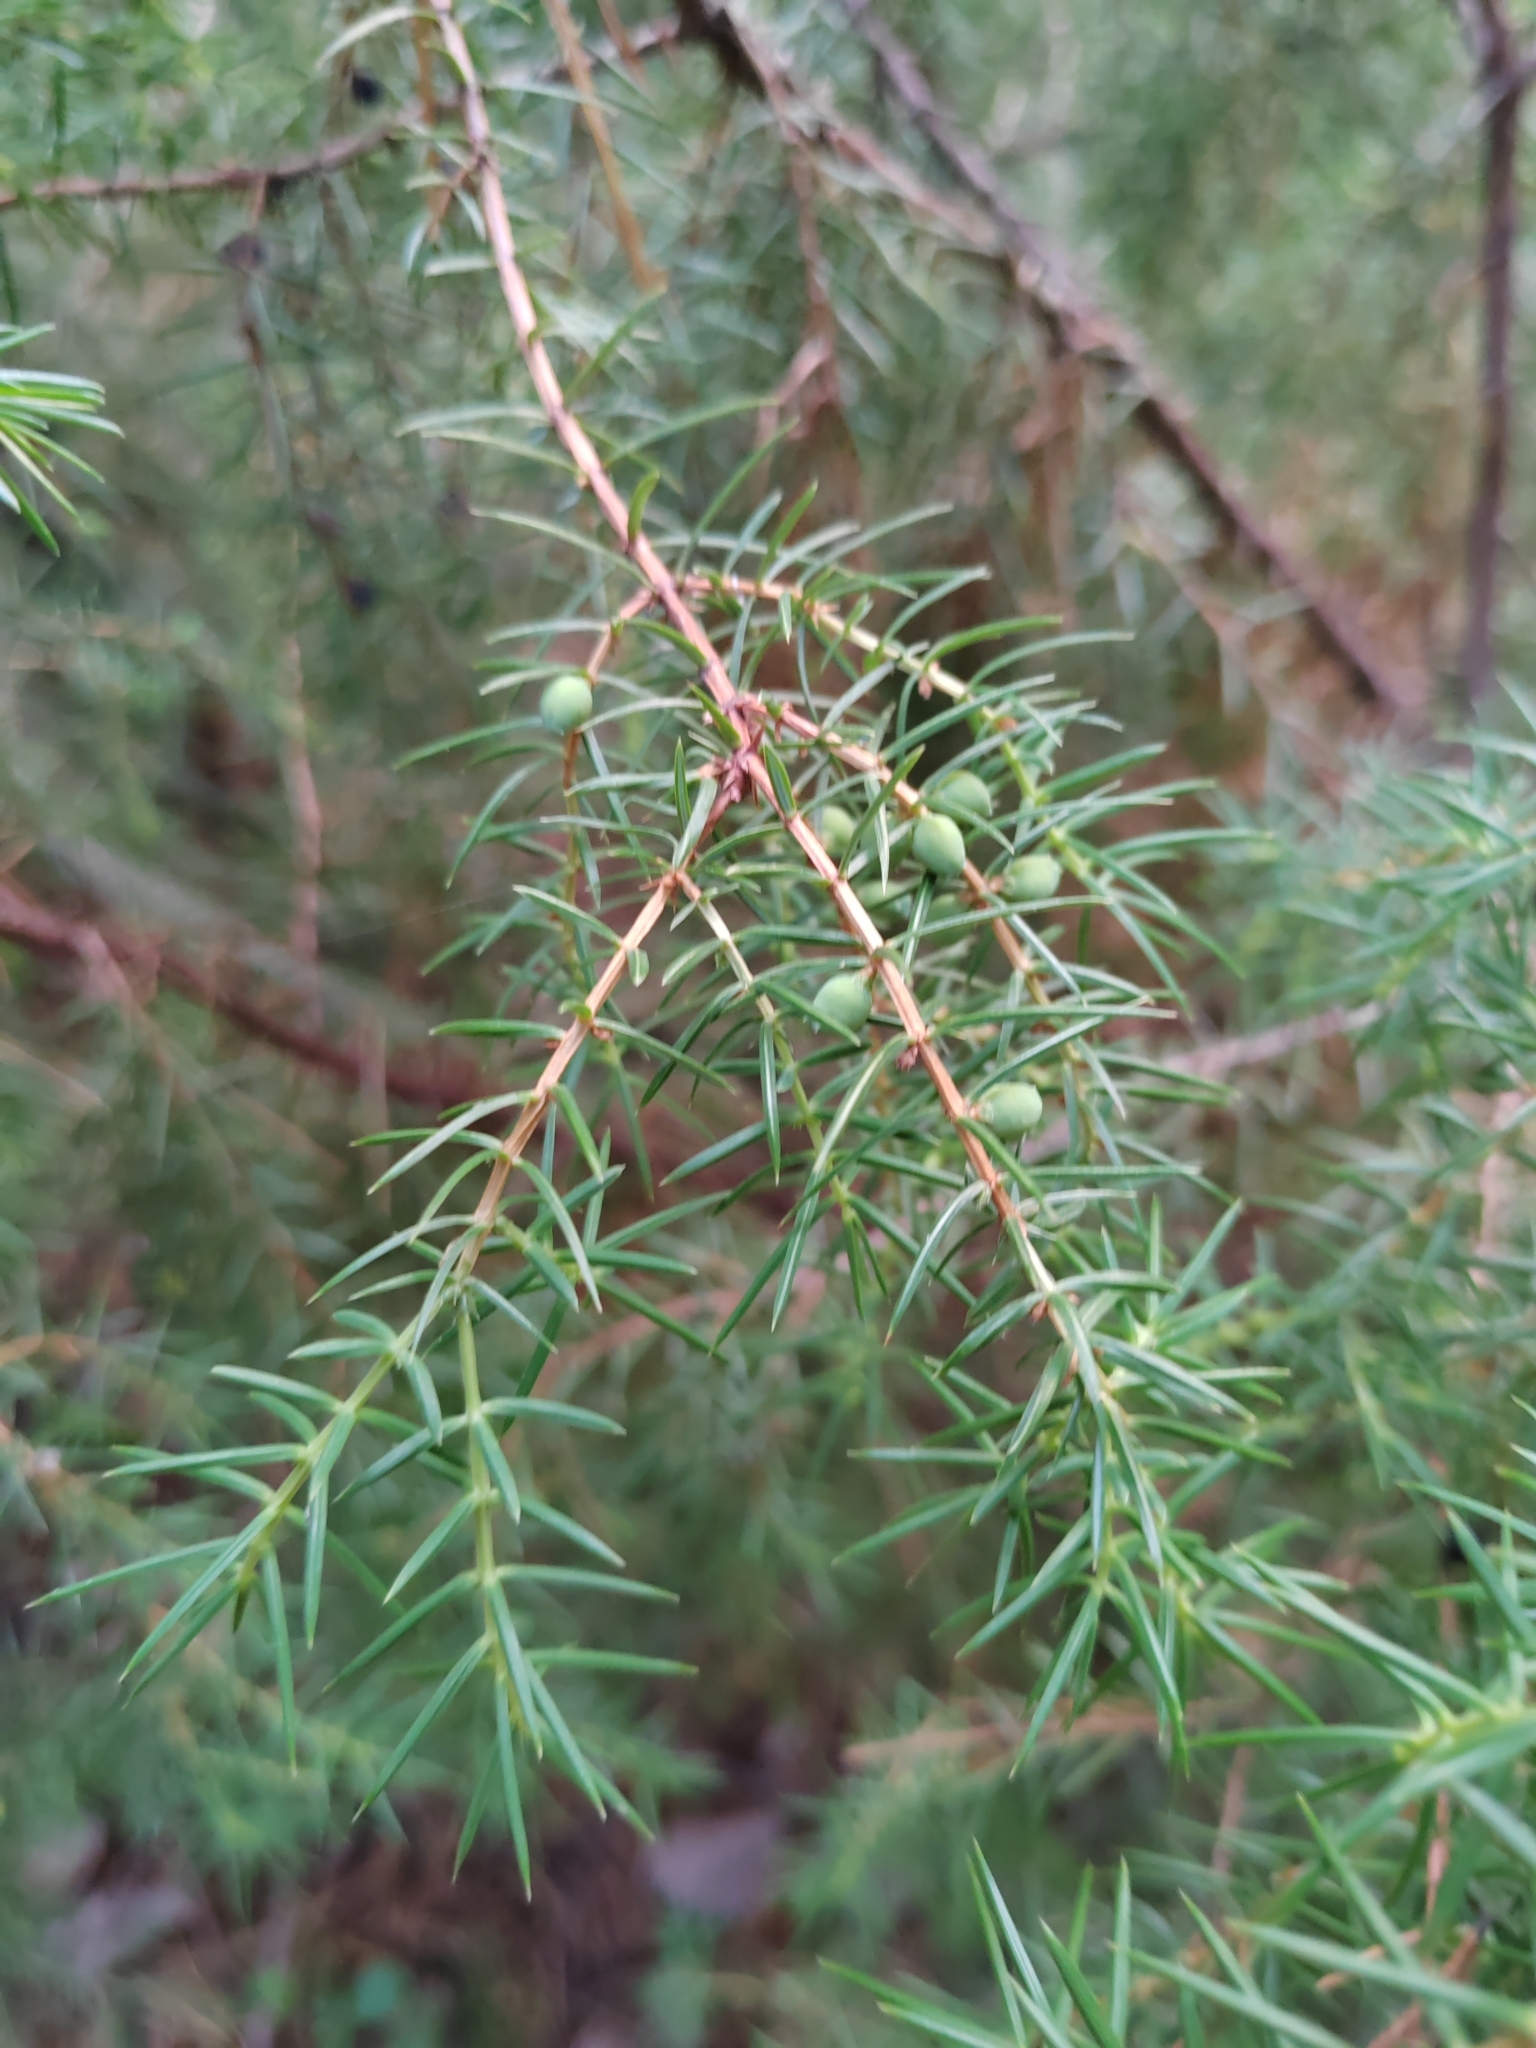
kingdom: Plantae
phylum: Tracheophyta
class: Pinopsida
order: Pinales
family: Cupressaceae
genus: Juniperus
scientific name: Juniperus communis
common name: Common juniper
